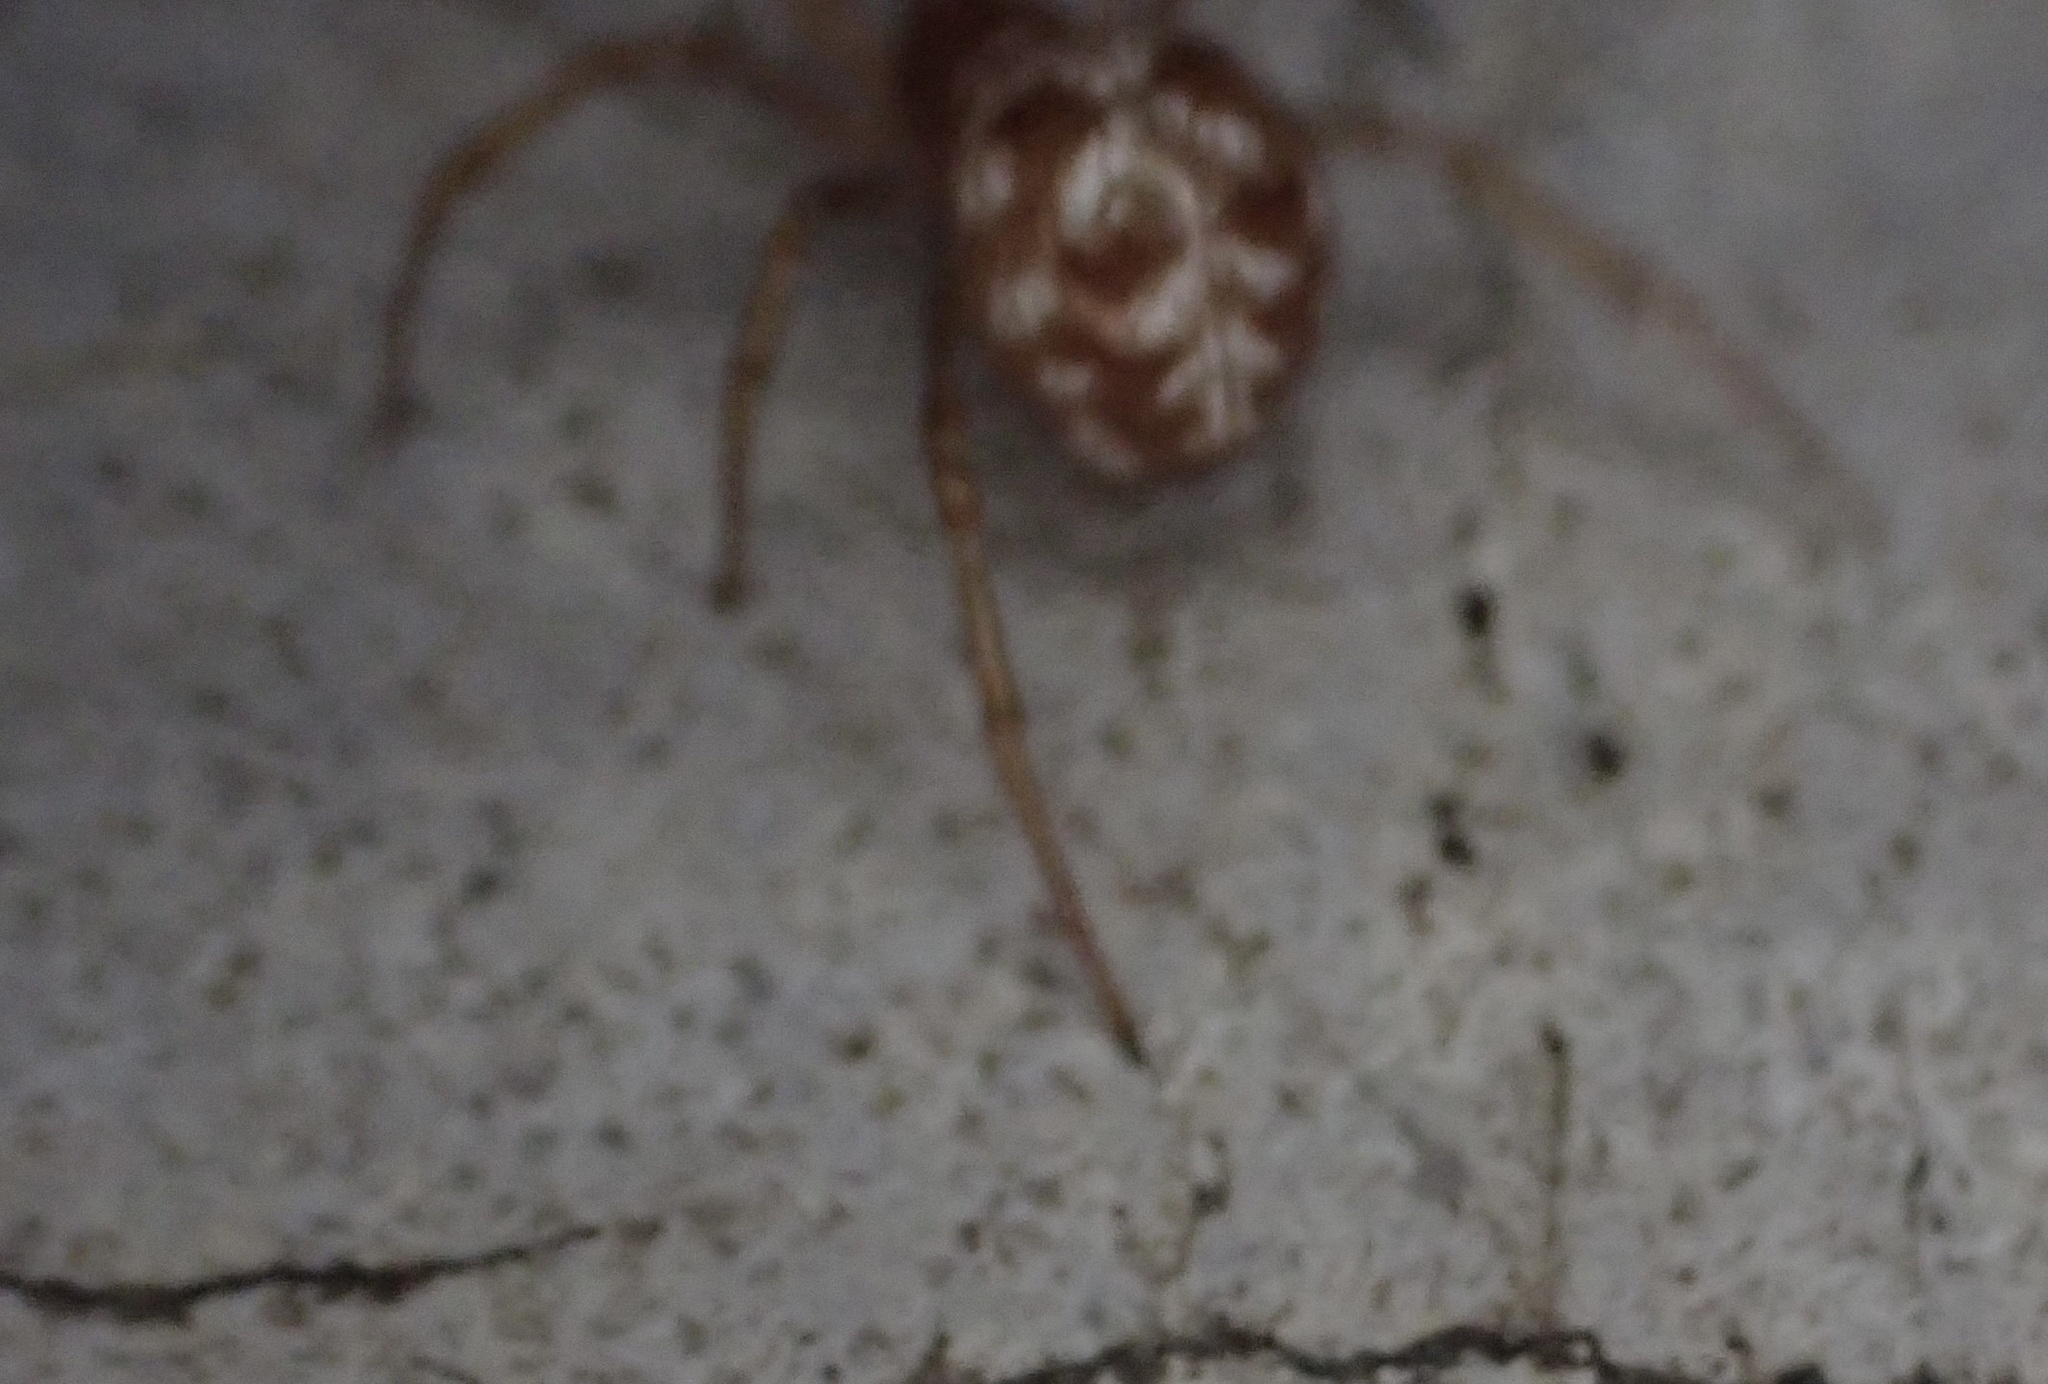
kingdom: Animalia
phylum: Arthropoda
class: Arachnida
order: Araneae
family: Theridiidae
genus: Steatoda
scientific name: Steatoda triangulosa
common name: Triangulate bud spider
